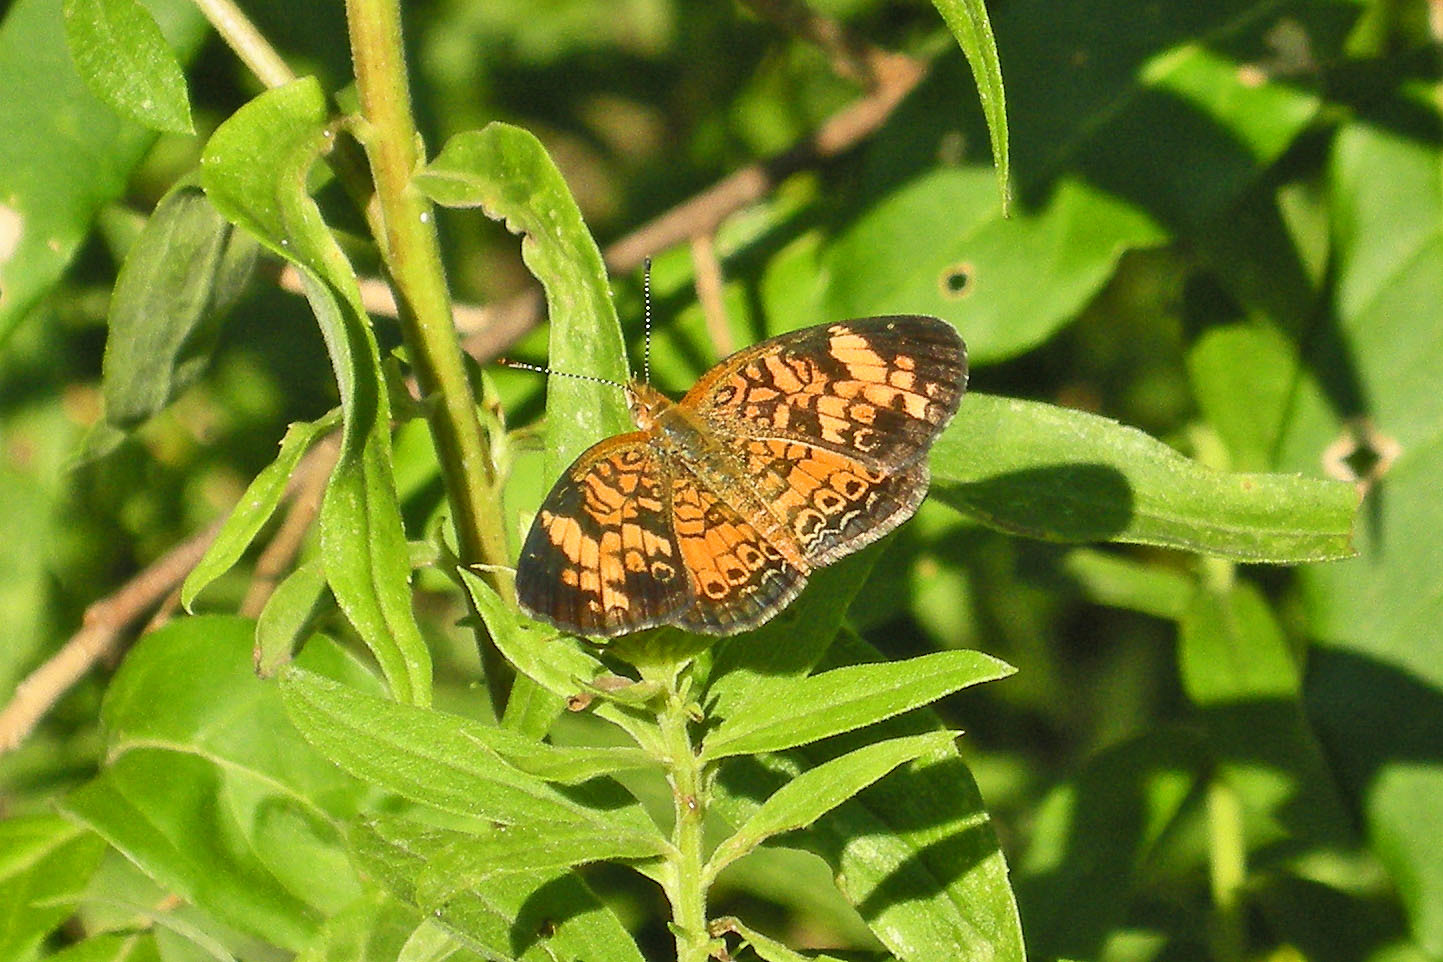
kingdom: Animalia
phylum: Arthropoda
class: Insecta
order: Lepidoptera
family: Nymphalidae
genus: Phyciodes
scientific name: Phyciodes tharos
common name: Pearl crescent
